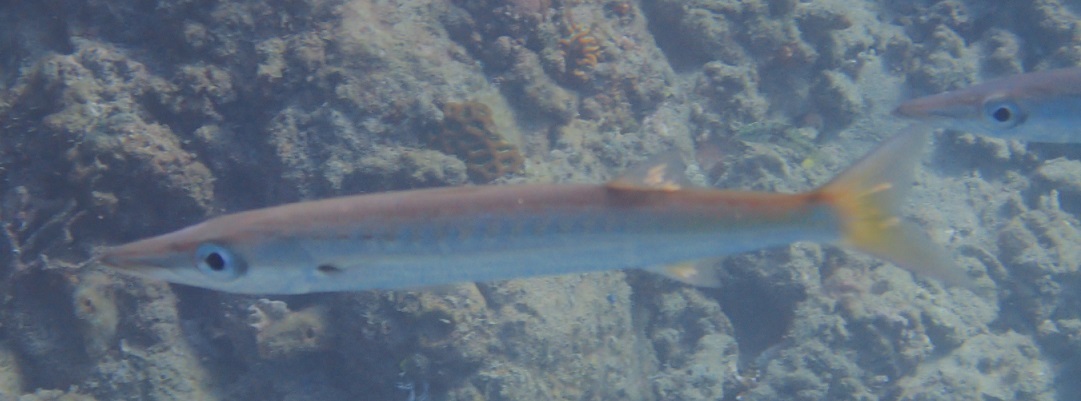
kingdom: Animalia
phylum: Chordata
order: Perciformes
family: Sphyraenidae
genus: Sphyraena
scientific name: Sphyraena flavicauda
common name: Yellowtail barracuda
